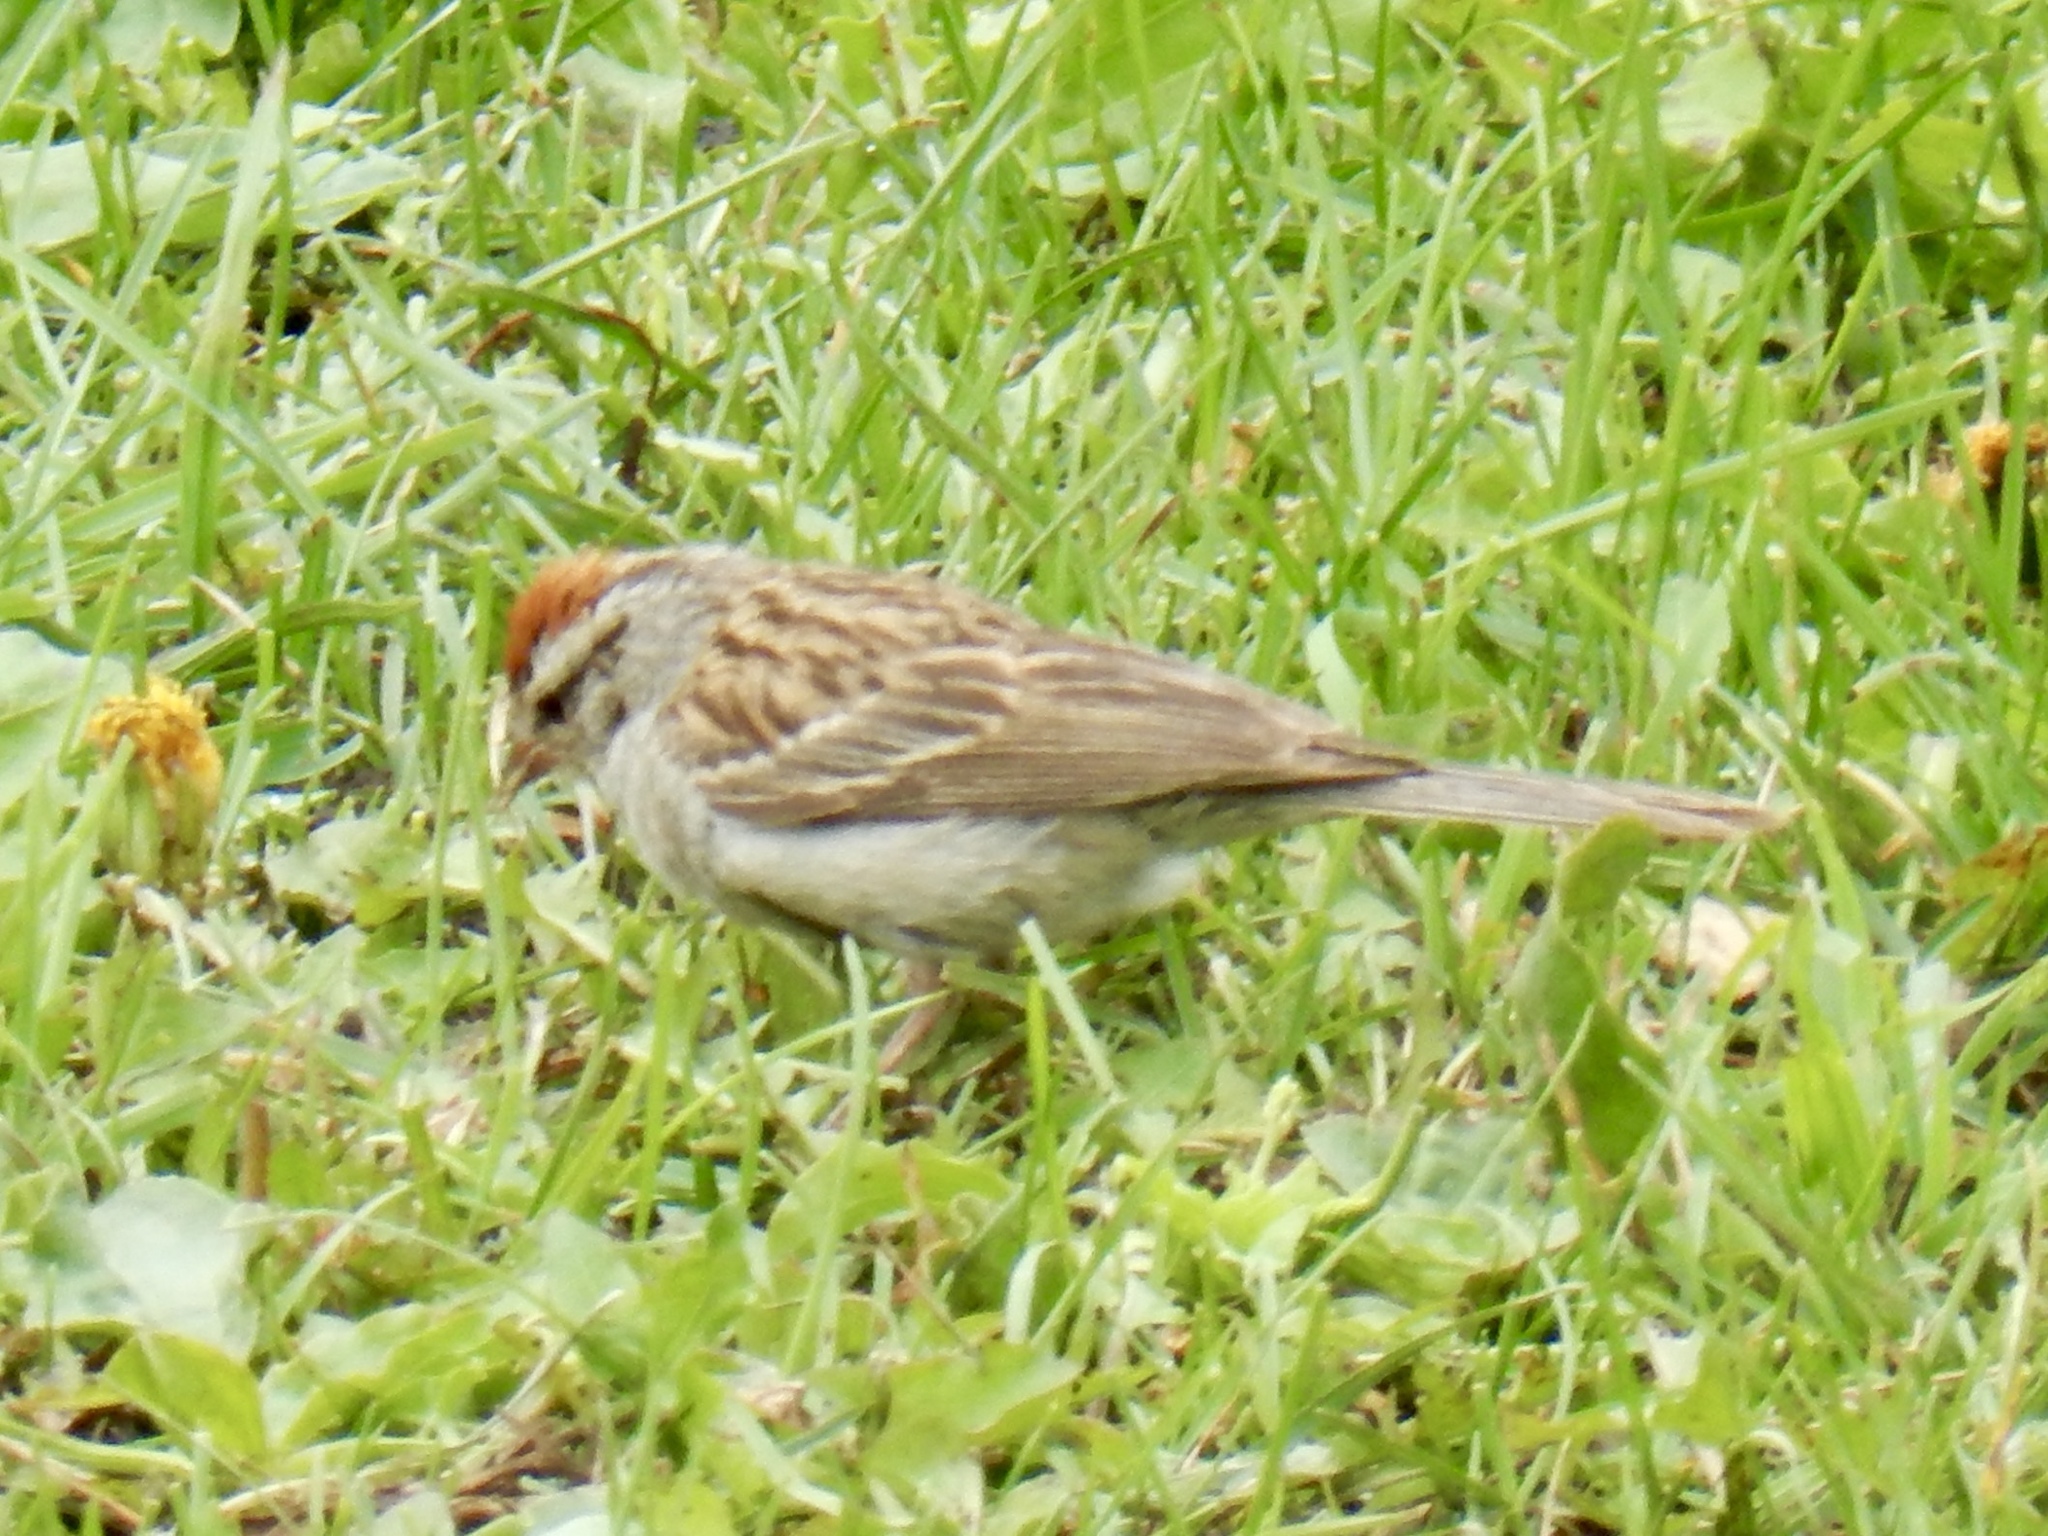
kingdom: Animalia
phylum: Chordata
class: Aves
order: Passeriformes
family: Passerellidae
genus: Spizella
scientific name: Spizella passerina
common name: Chipping sparrow
